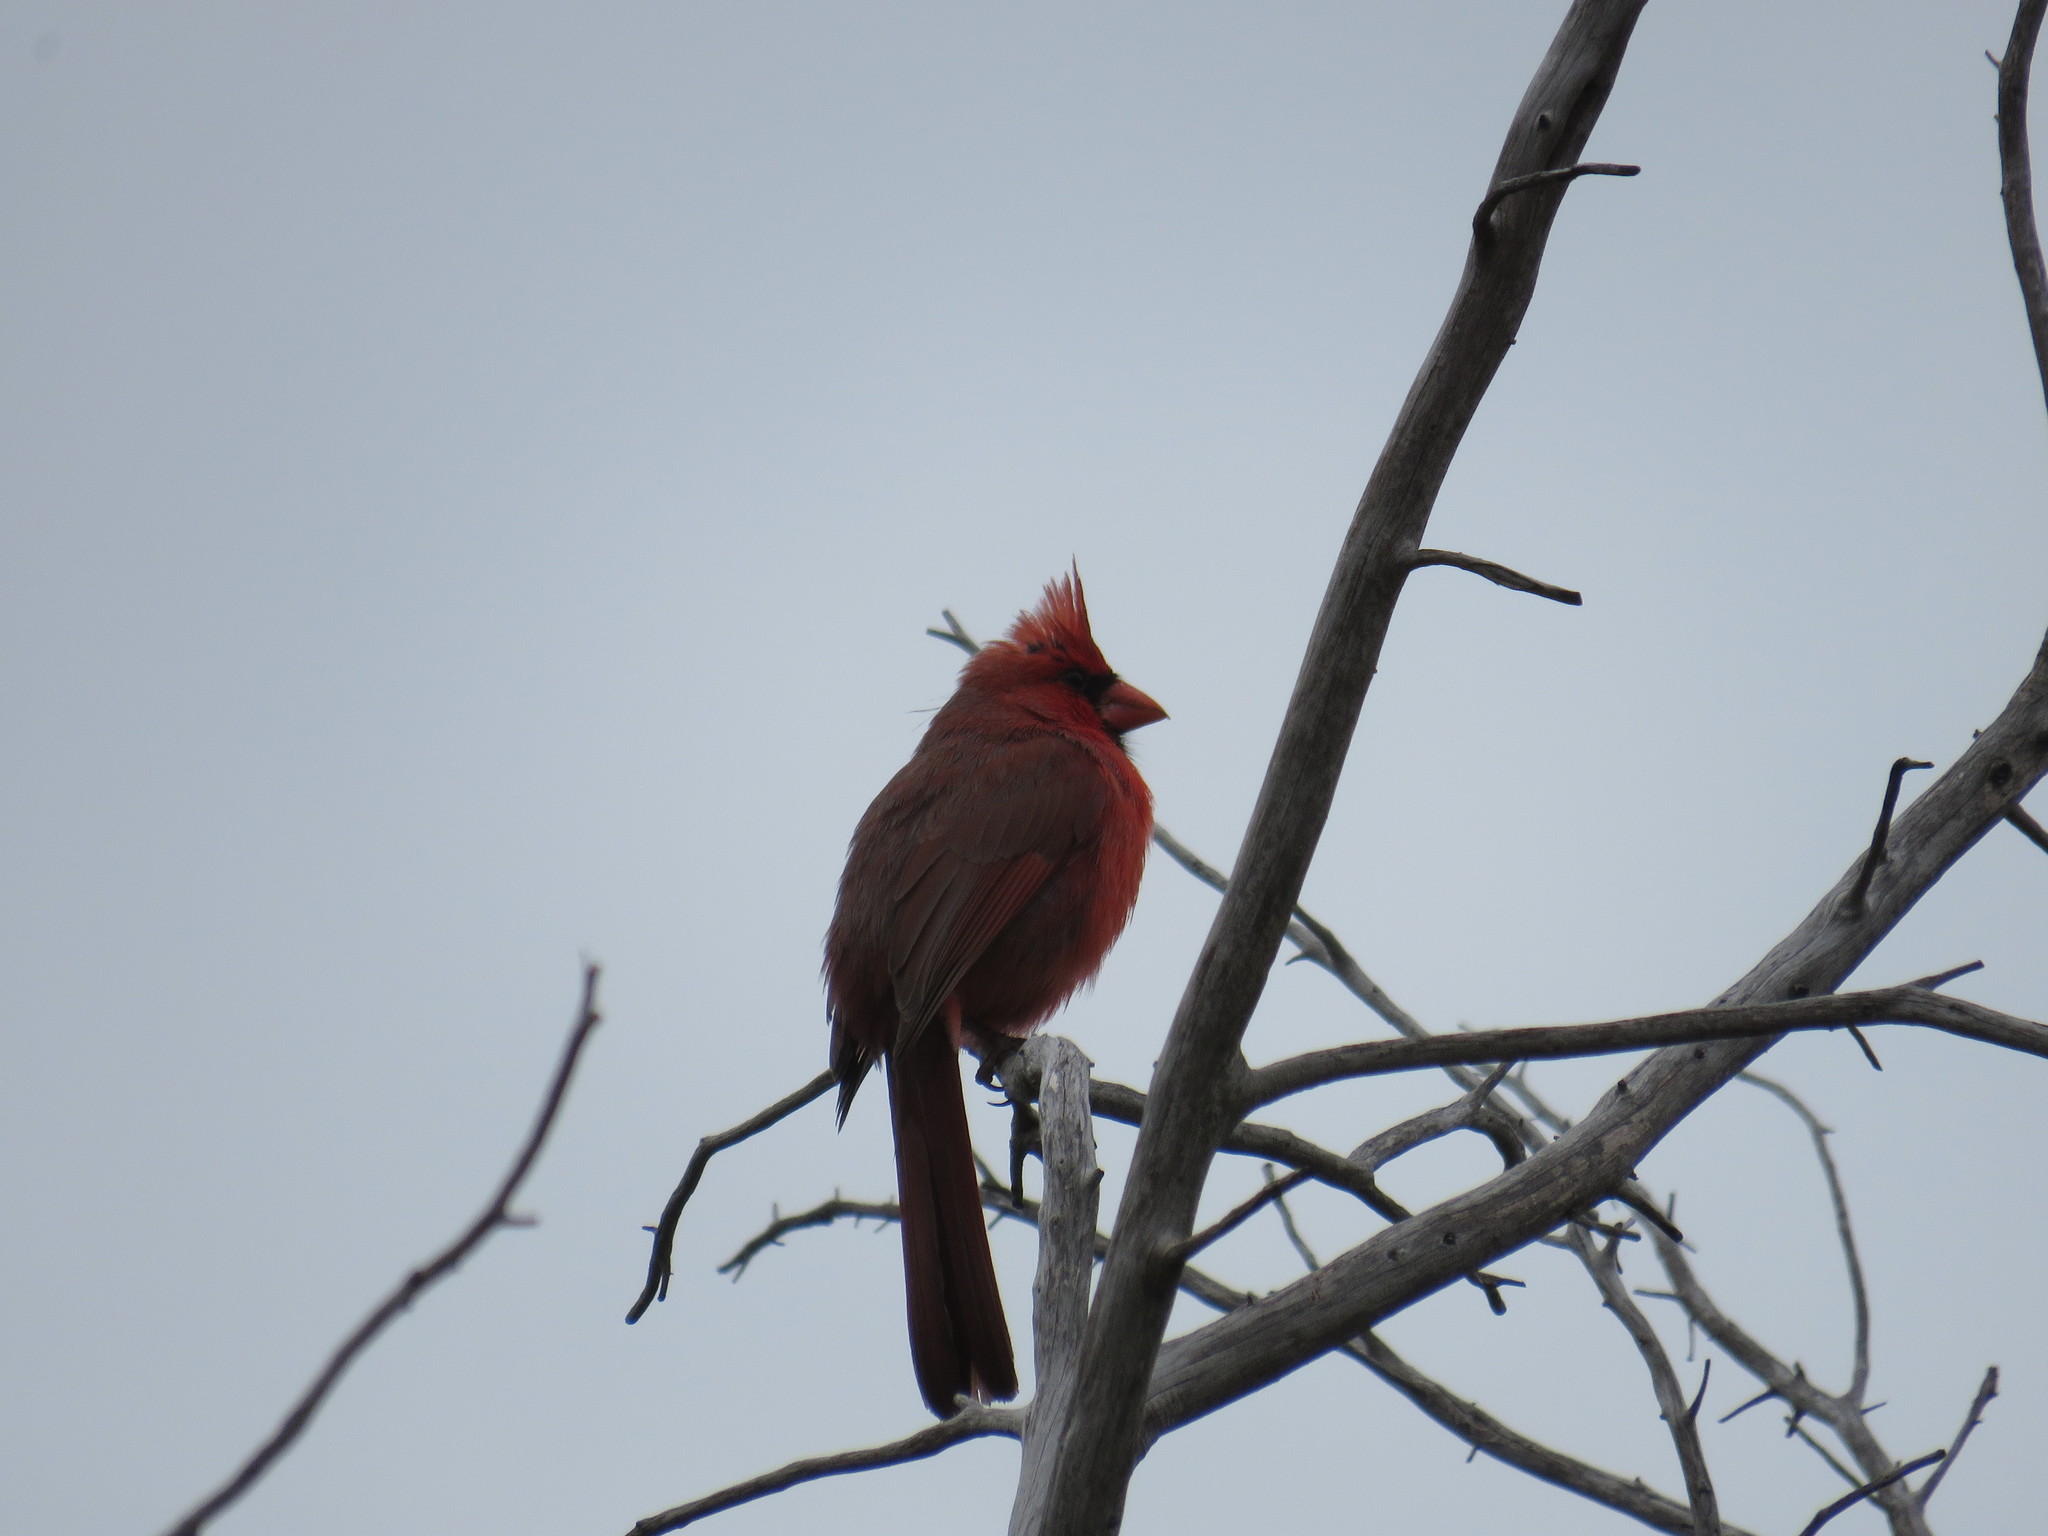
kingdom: Animalia
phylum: Chordata
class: Aves
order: Passeriformes
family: Cardinalidae
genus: Cardinalis
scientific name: Cardinalis cardinalis
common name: Northern cardinal
